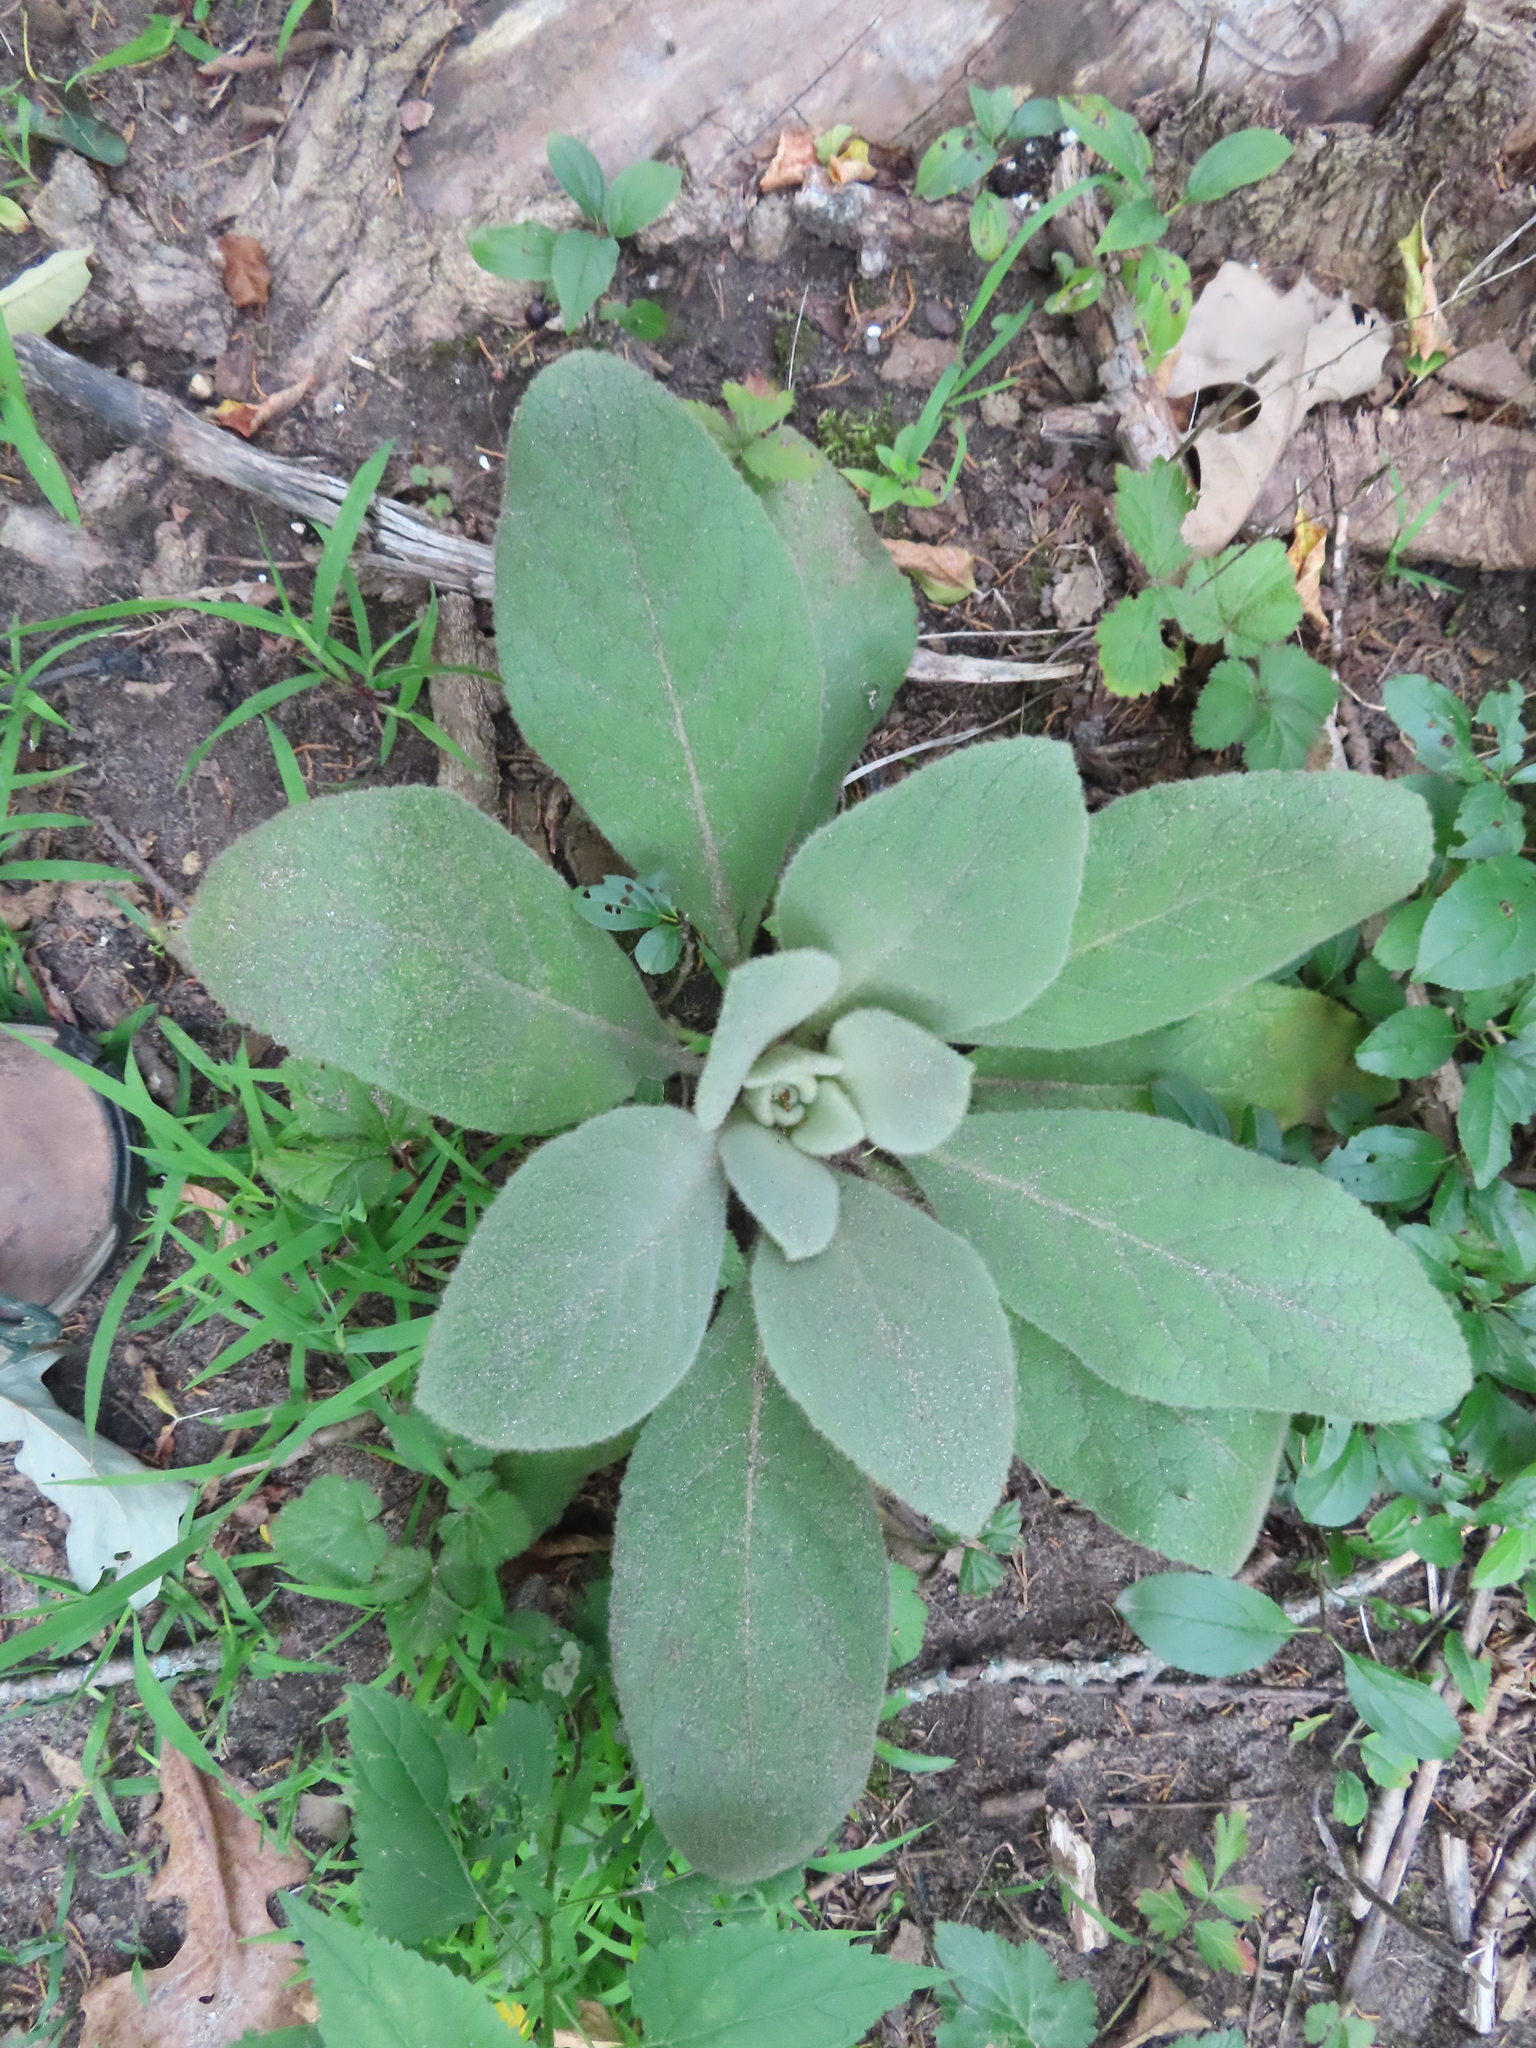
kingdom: Plantae
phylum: Tracheophyta
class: Magnoliopsida
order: Lamiales
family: Scrophulariaceae
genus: Verbascum
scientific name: Verbascum thapsus
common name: Common mullein
